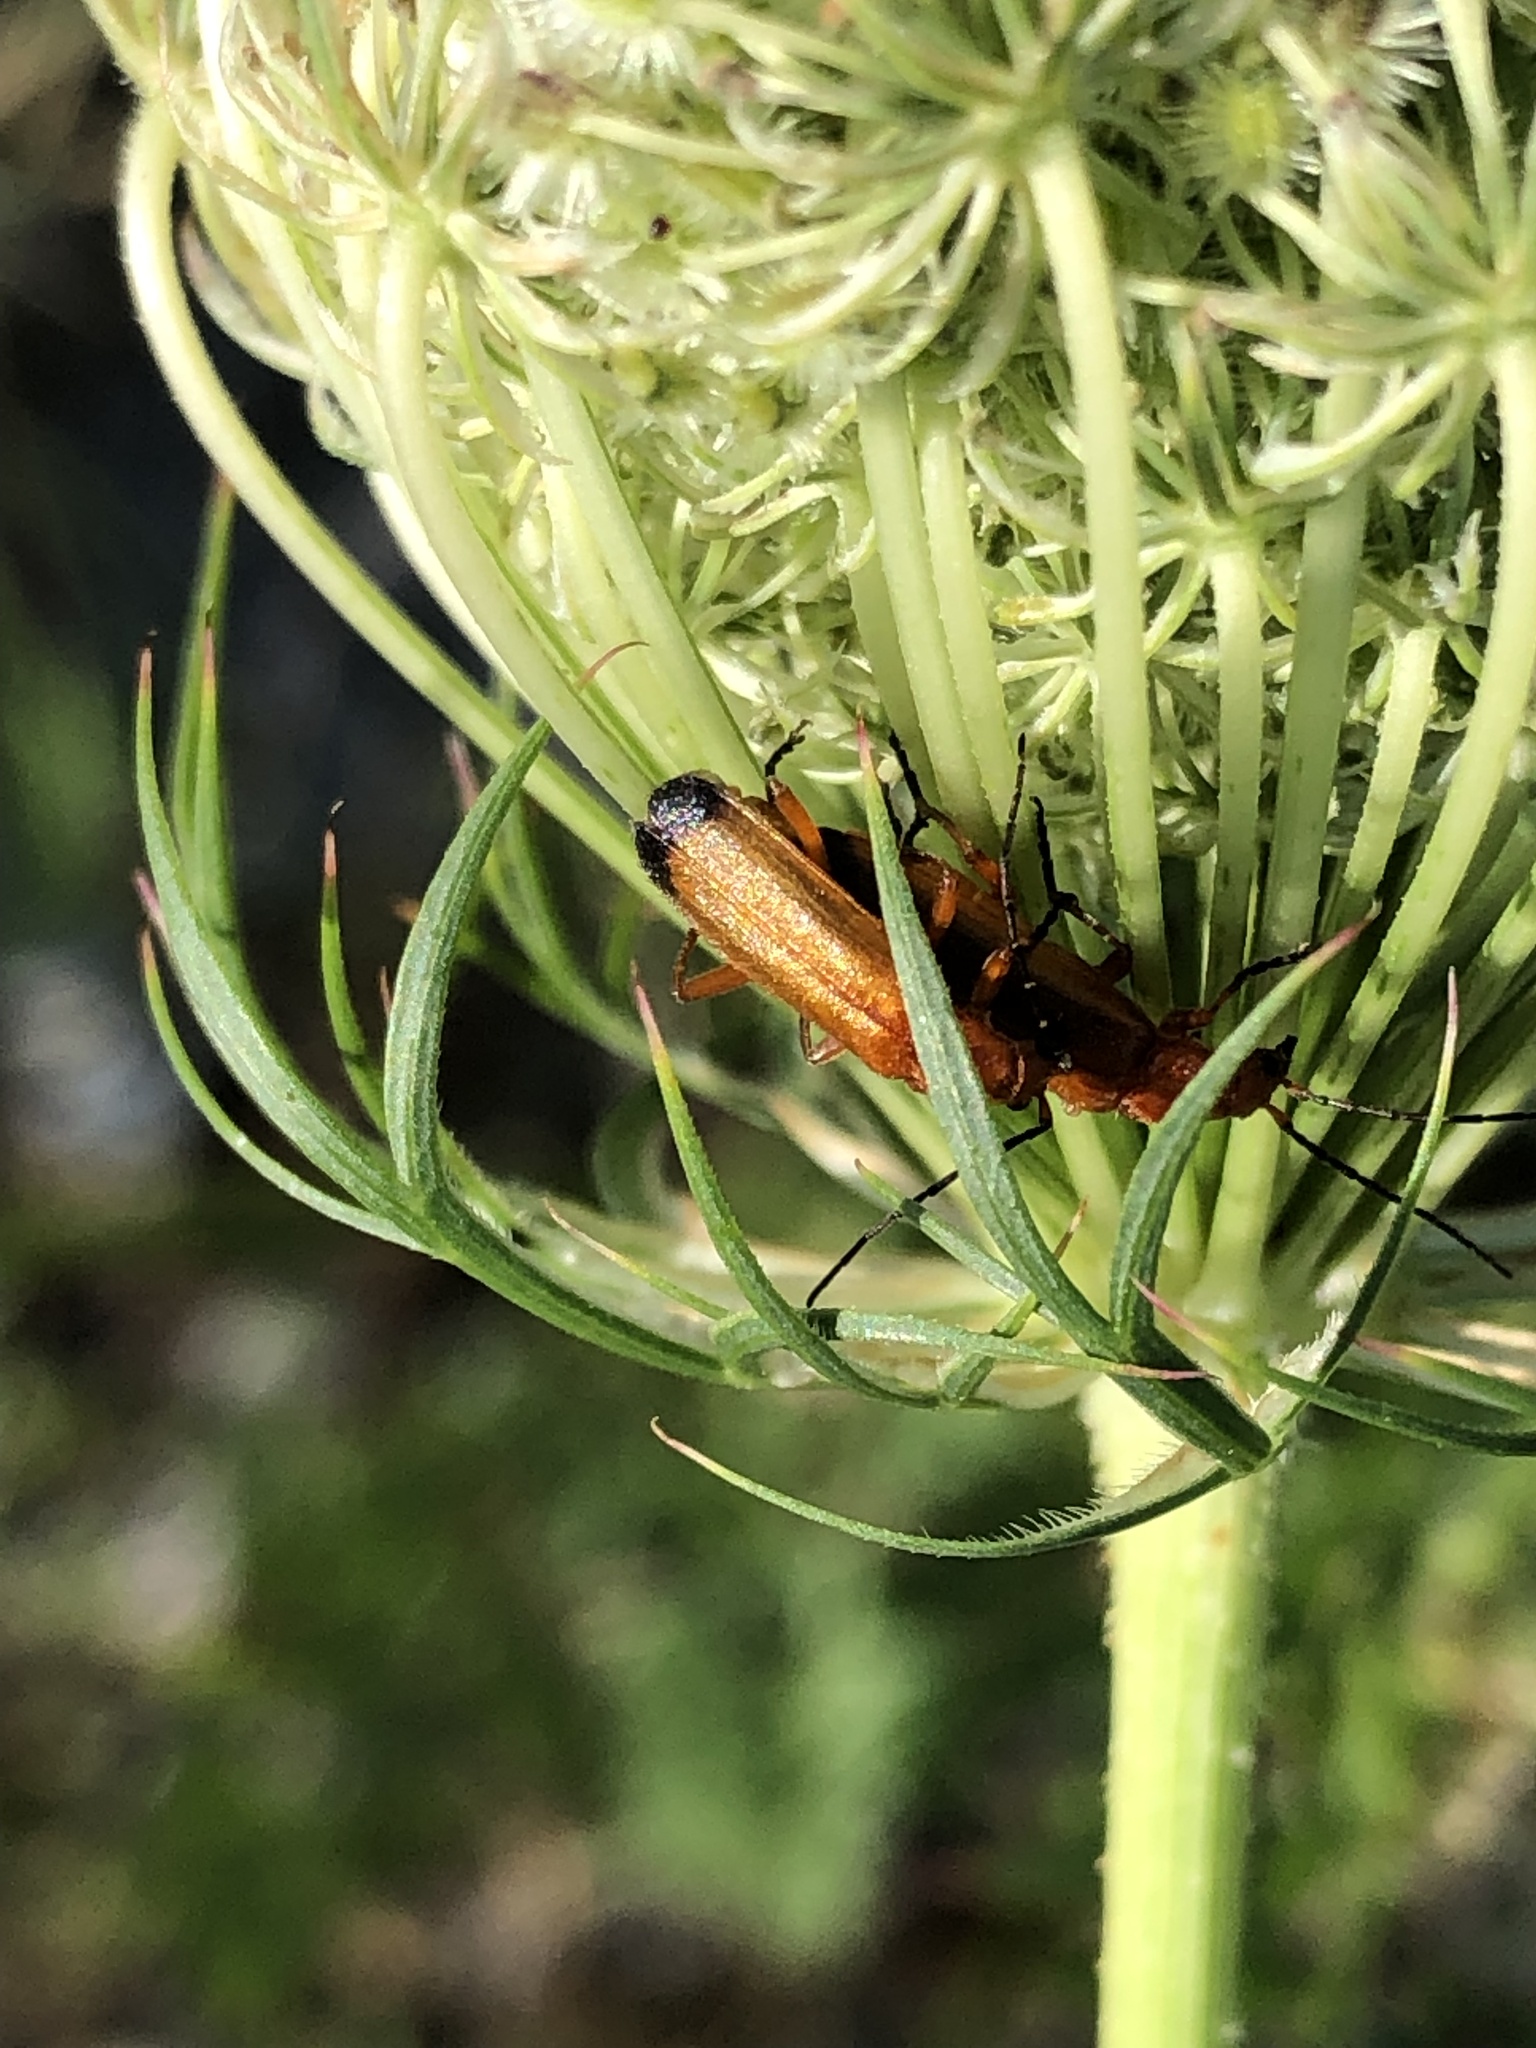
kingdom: Animalia
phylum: Arthropoda
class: Insecta
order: Coleoptera
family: Cantharidae
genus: Rhagonycha
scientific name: Rhagonycha fulva
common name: Common red soldier beetle
